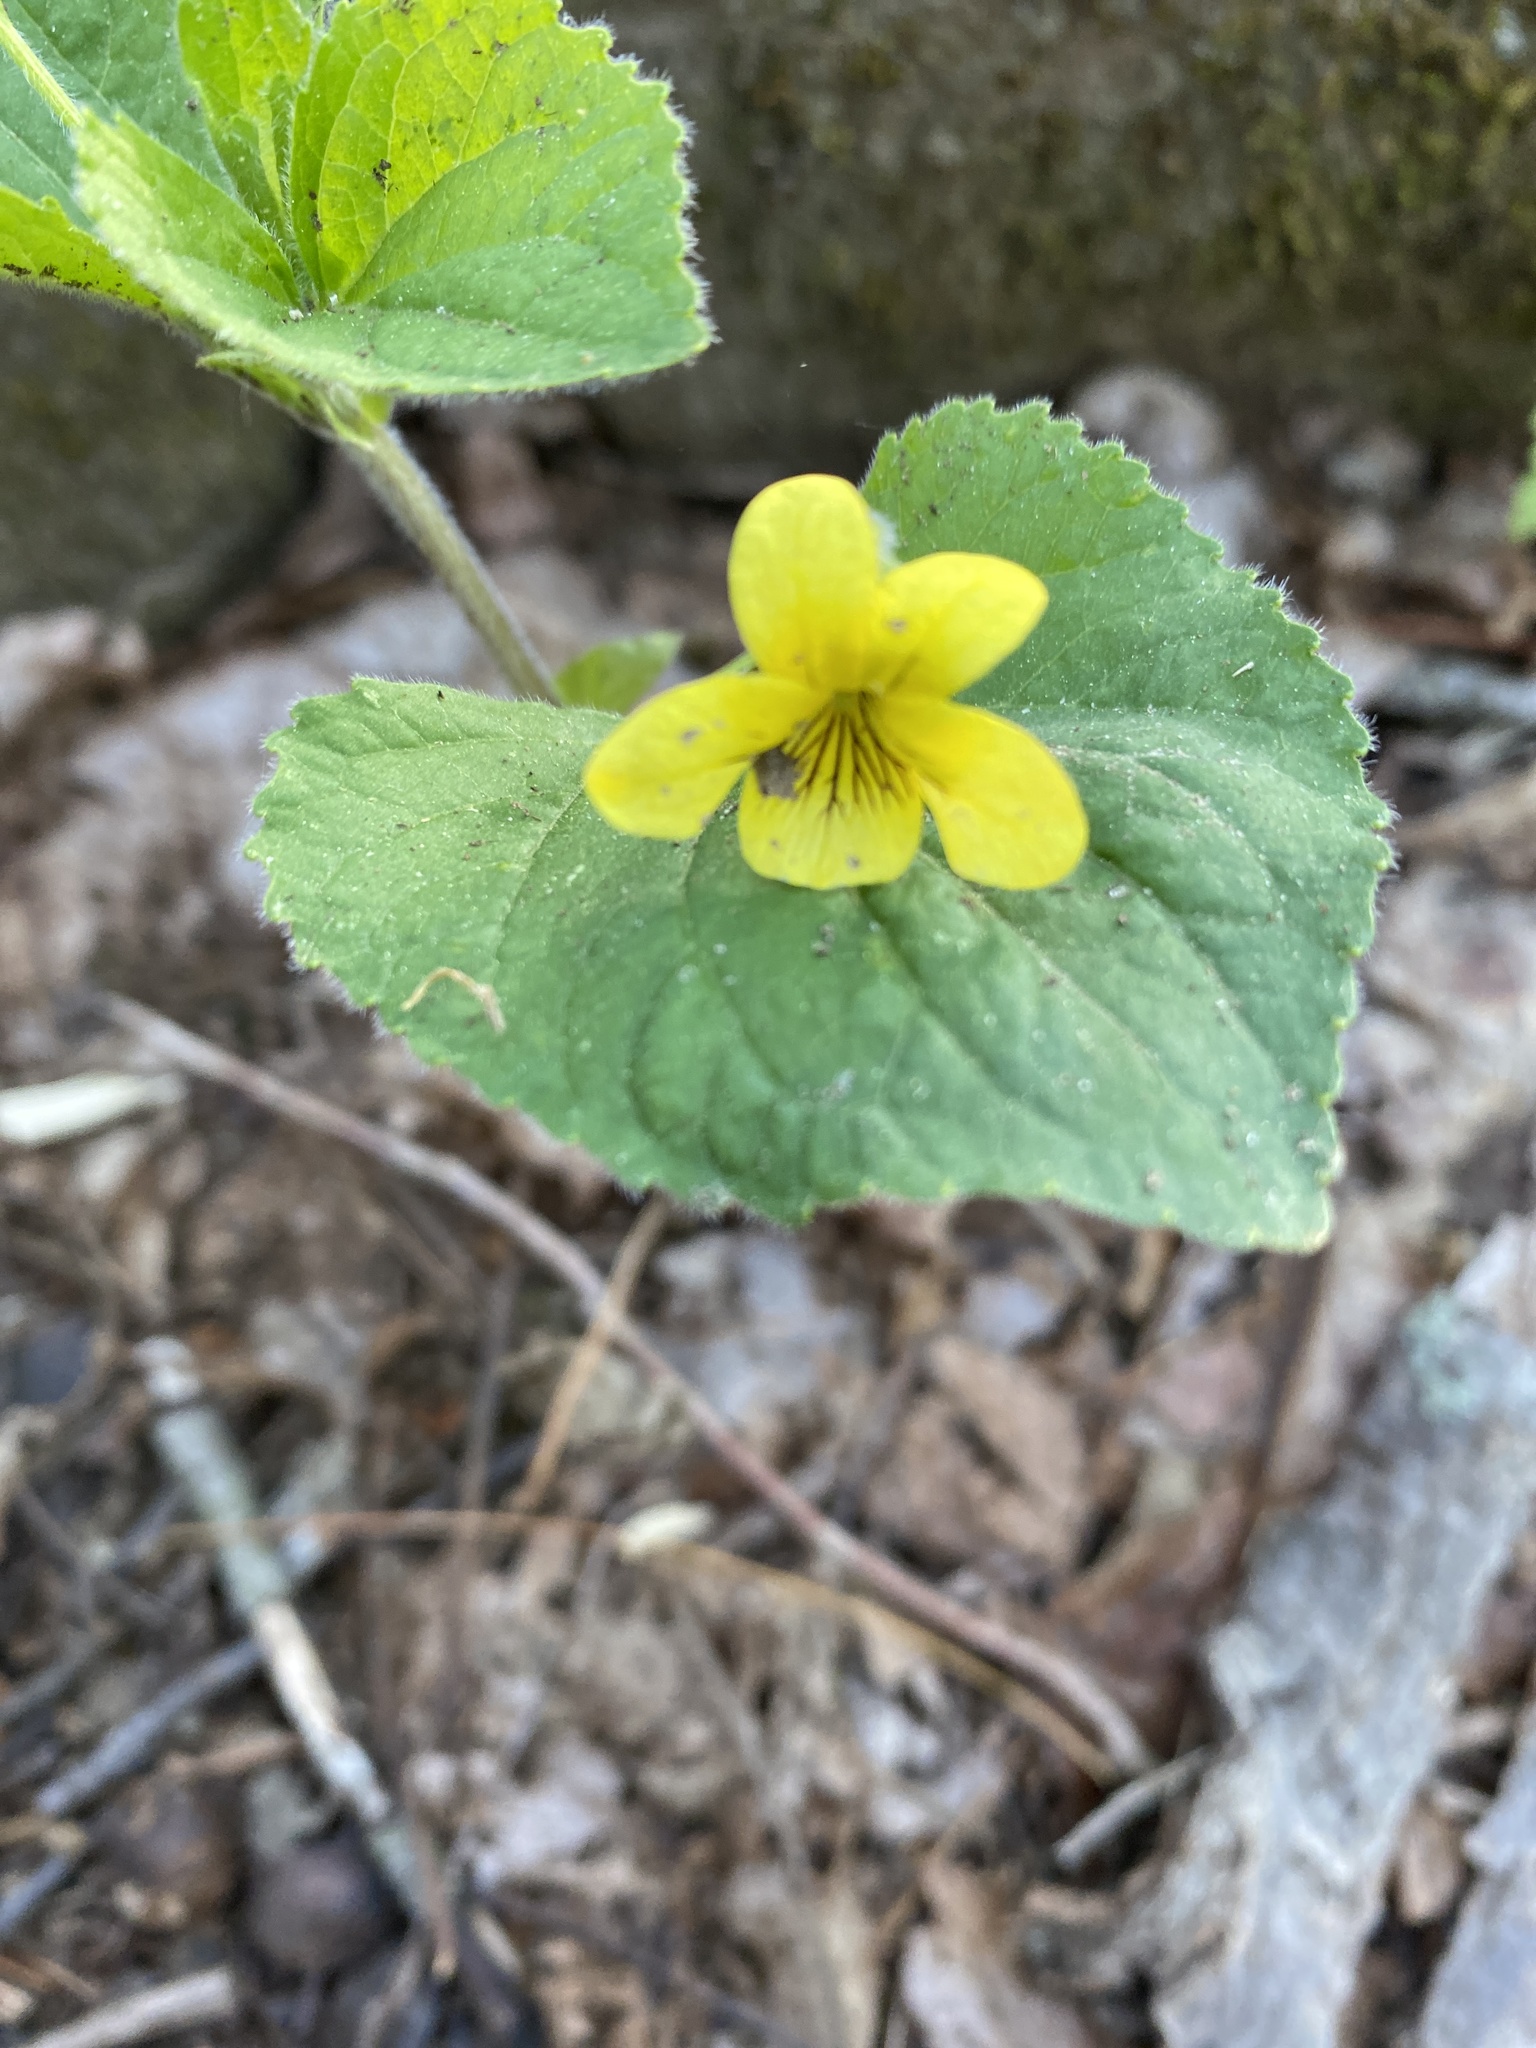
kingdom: Plantae
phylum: Tracheophyta
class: Magnoliopsida
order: Malpighiales
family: Violaceae
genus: Viola
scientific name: Viola pubescens
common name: Yellow forest violet
